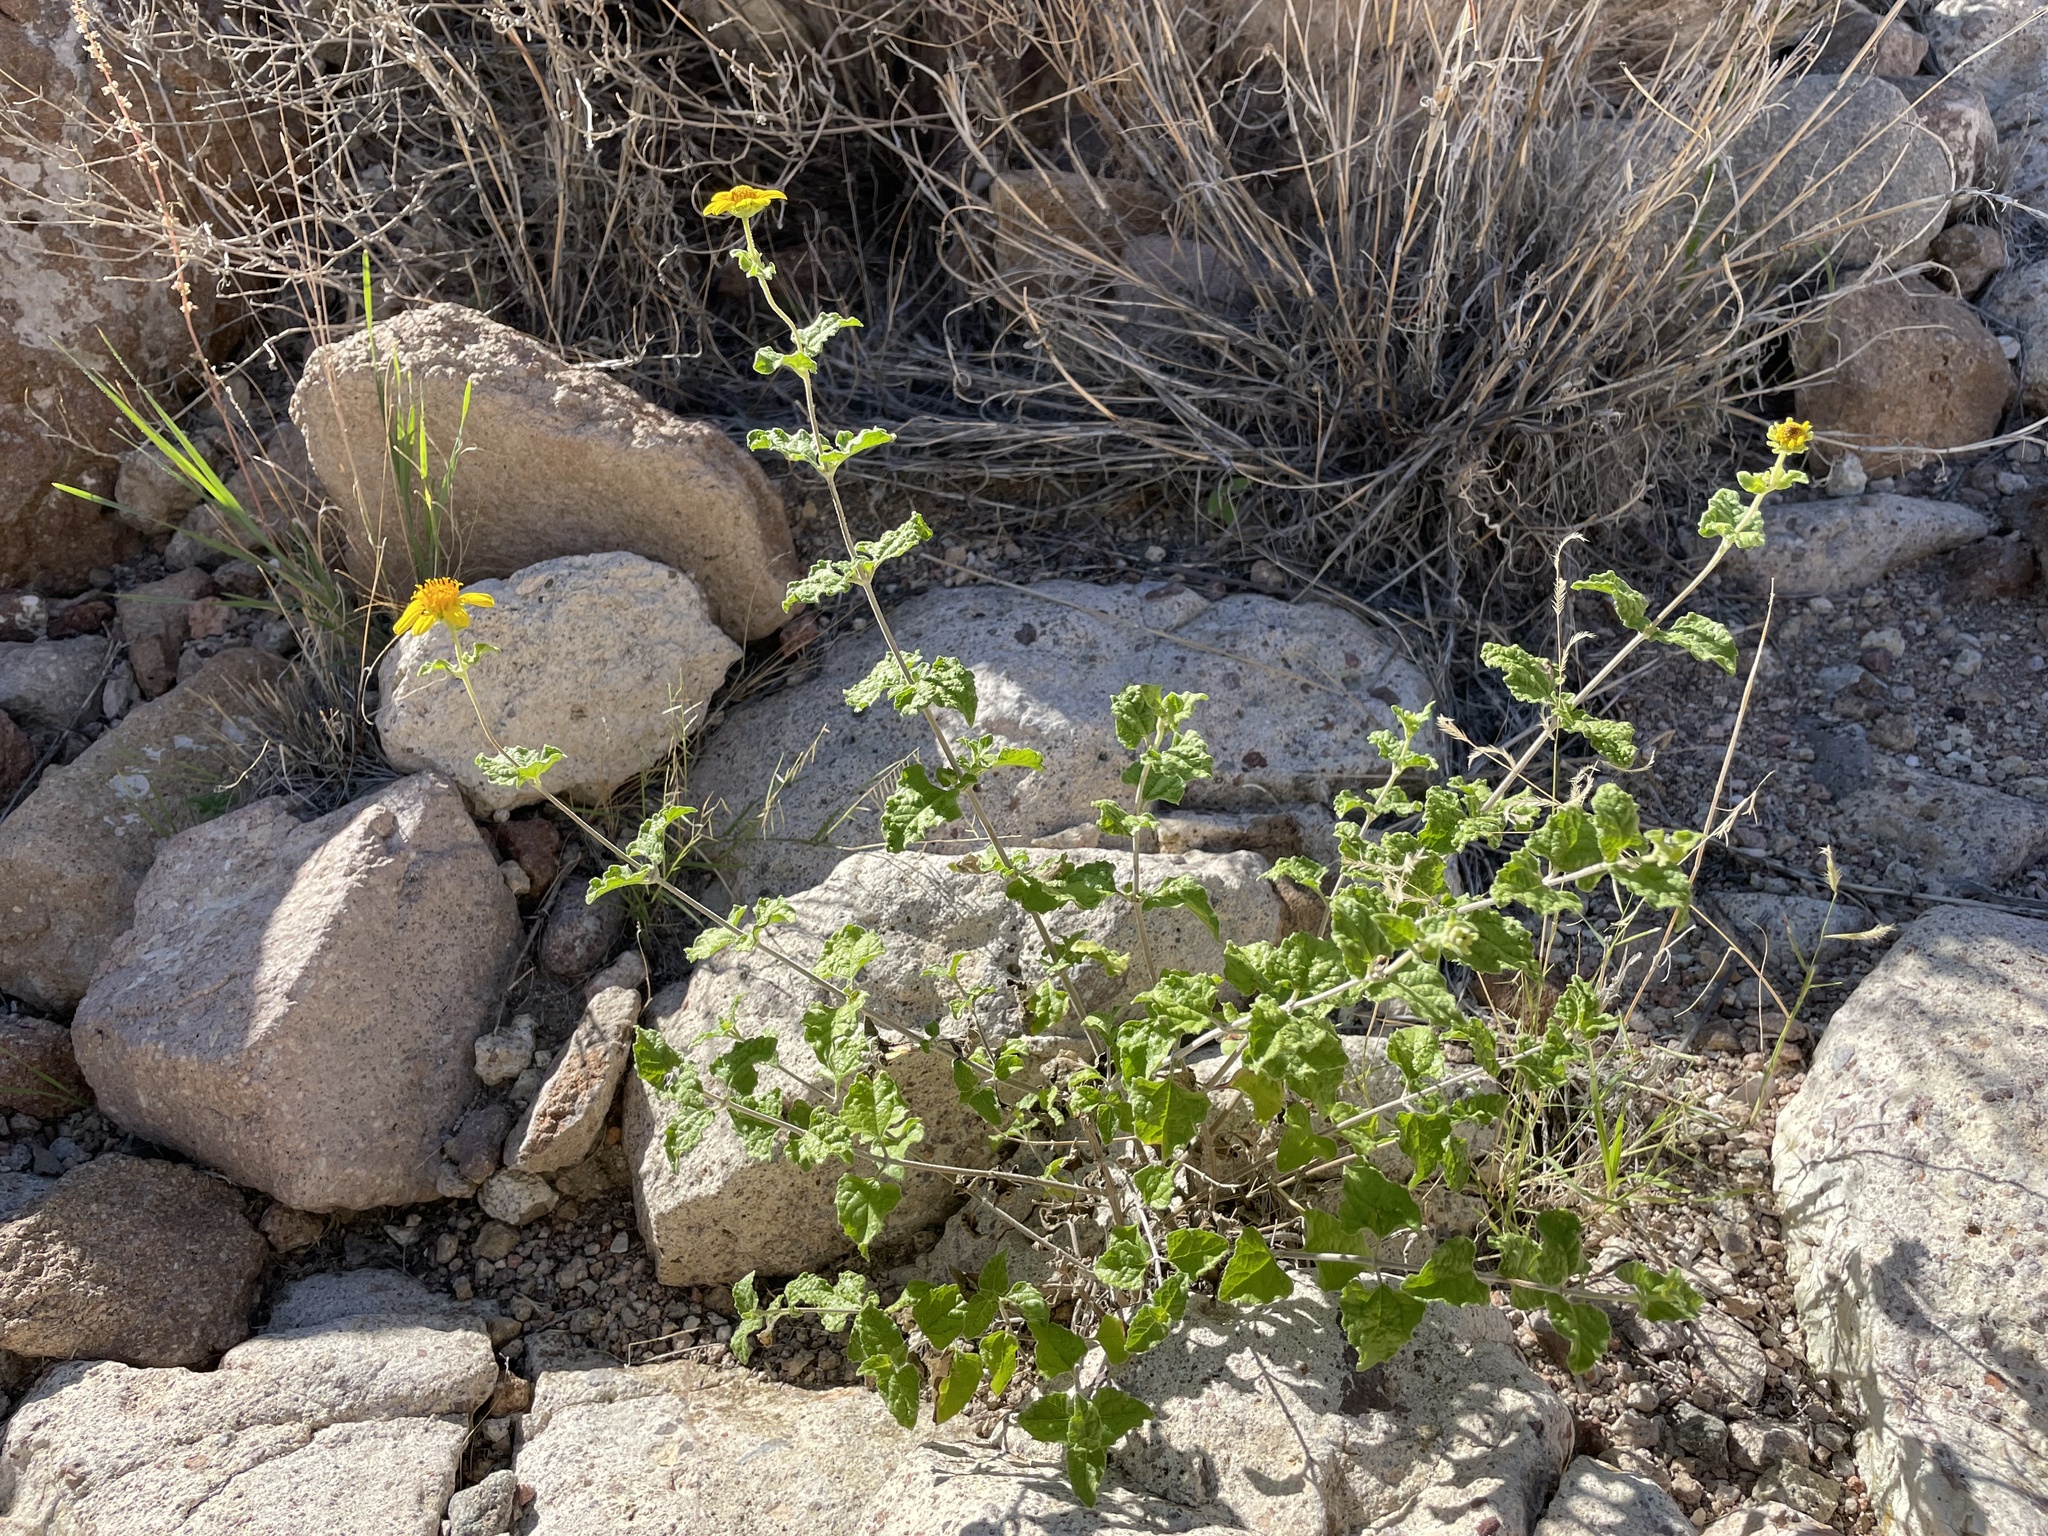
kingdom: Plantae
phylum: Tracheophyta
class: Magnoliopsida
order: Asterales
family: Asteraceae
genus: Bahiopsis
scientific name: Bahiopsis parishii
